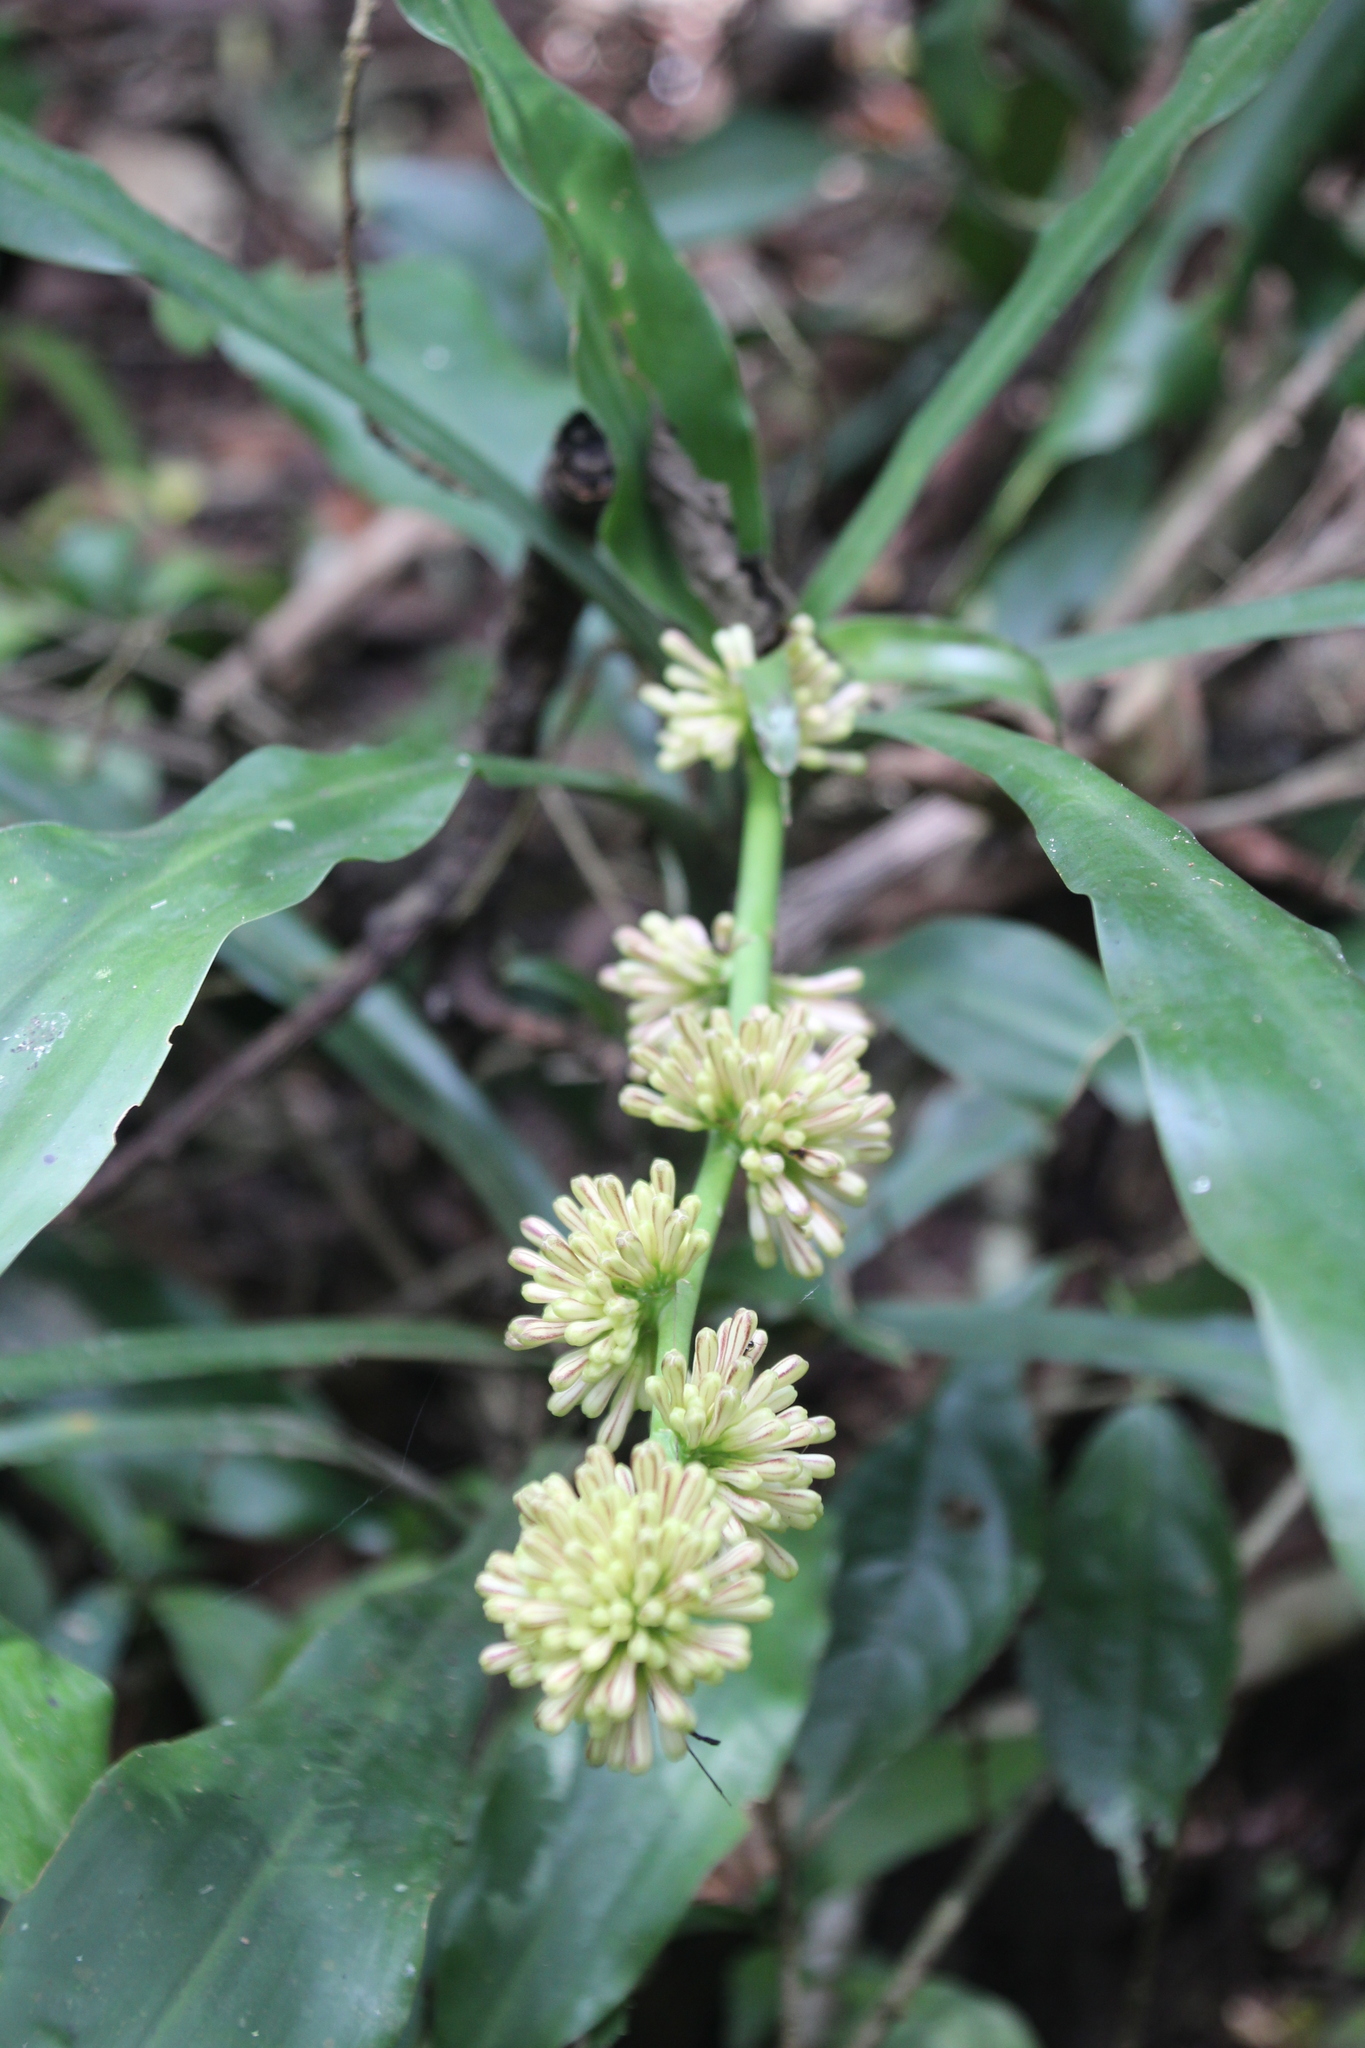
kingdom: Plantae
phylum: Tracheophyta
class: Liliopsida
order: Asparagales
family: Asparagaceae
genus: Dracaena
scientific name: Dracaena fragrans
